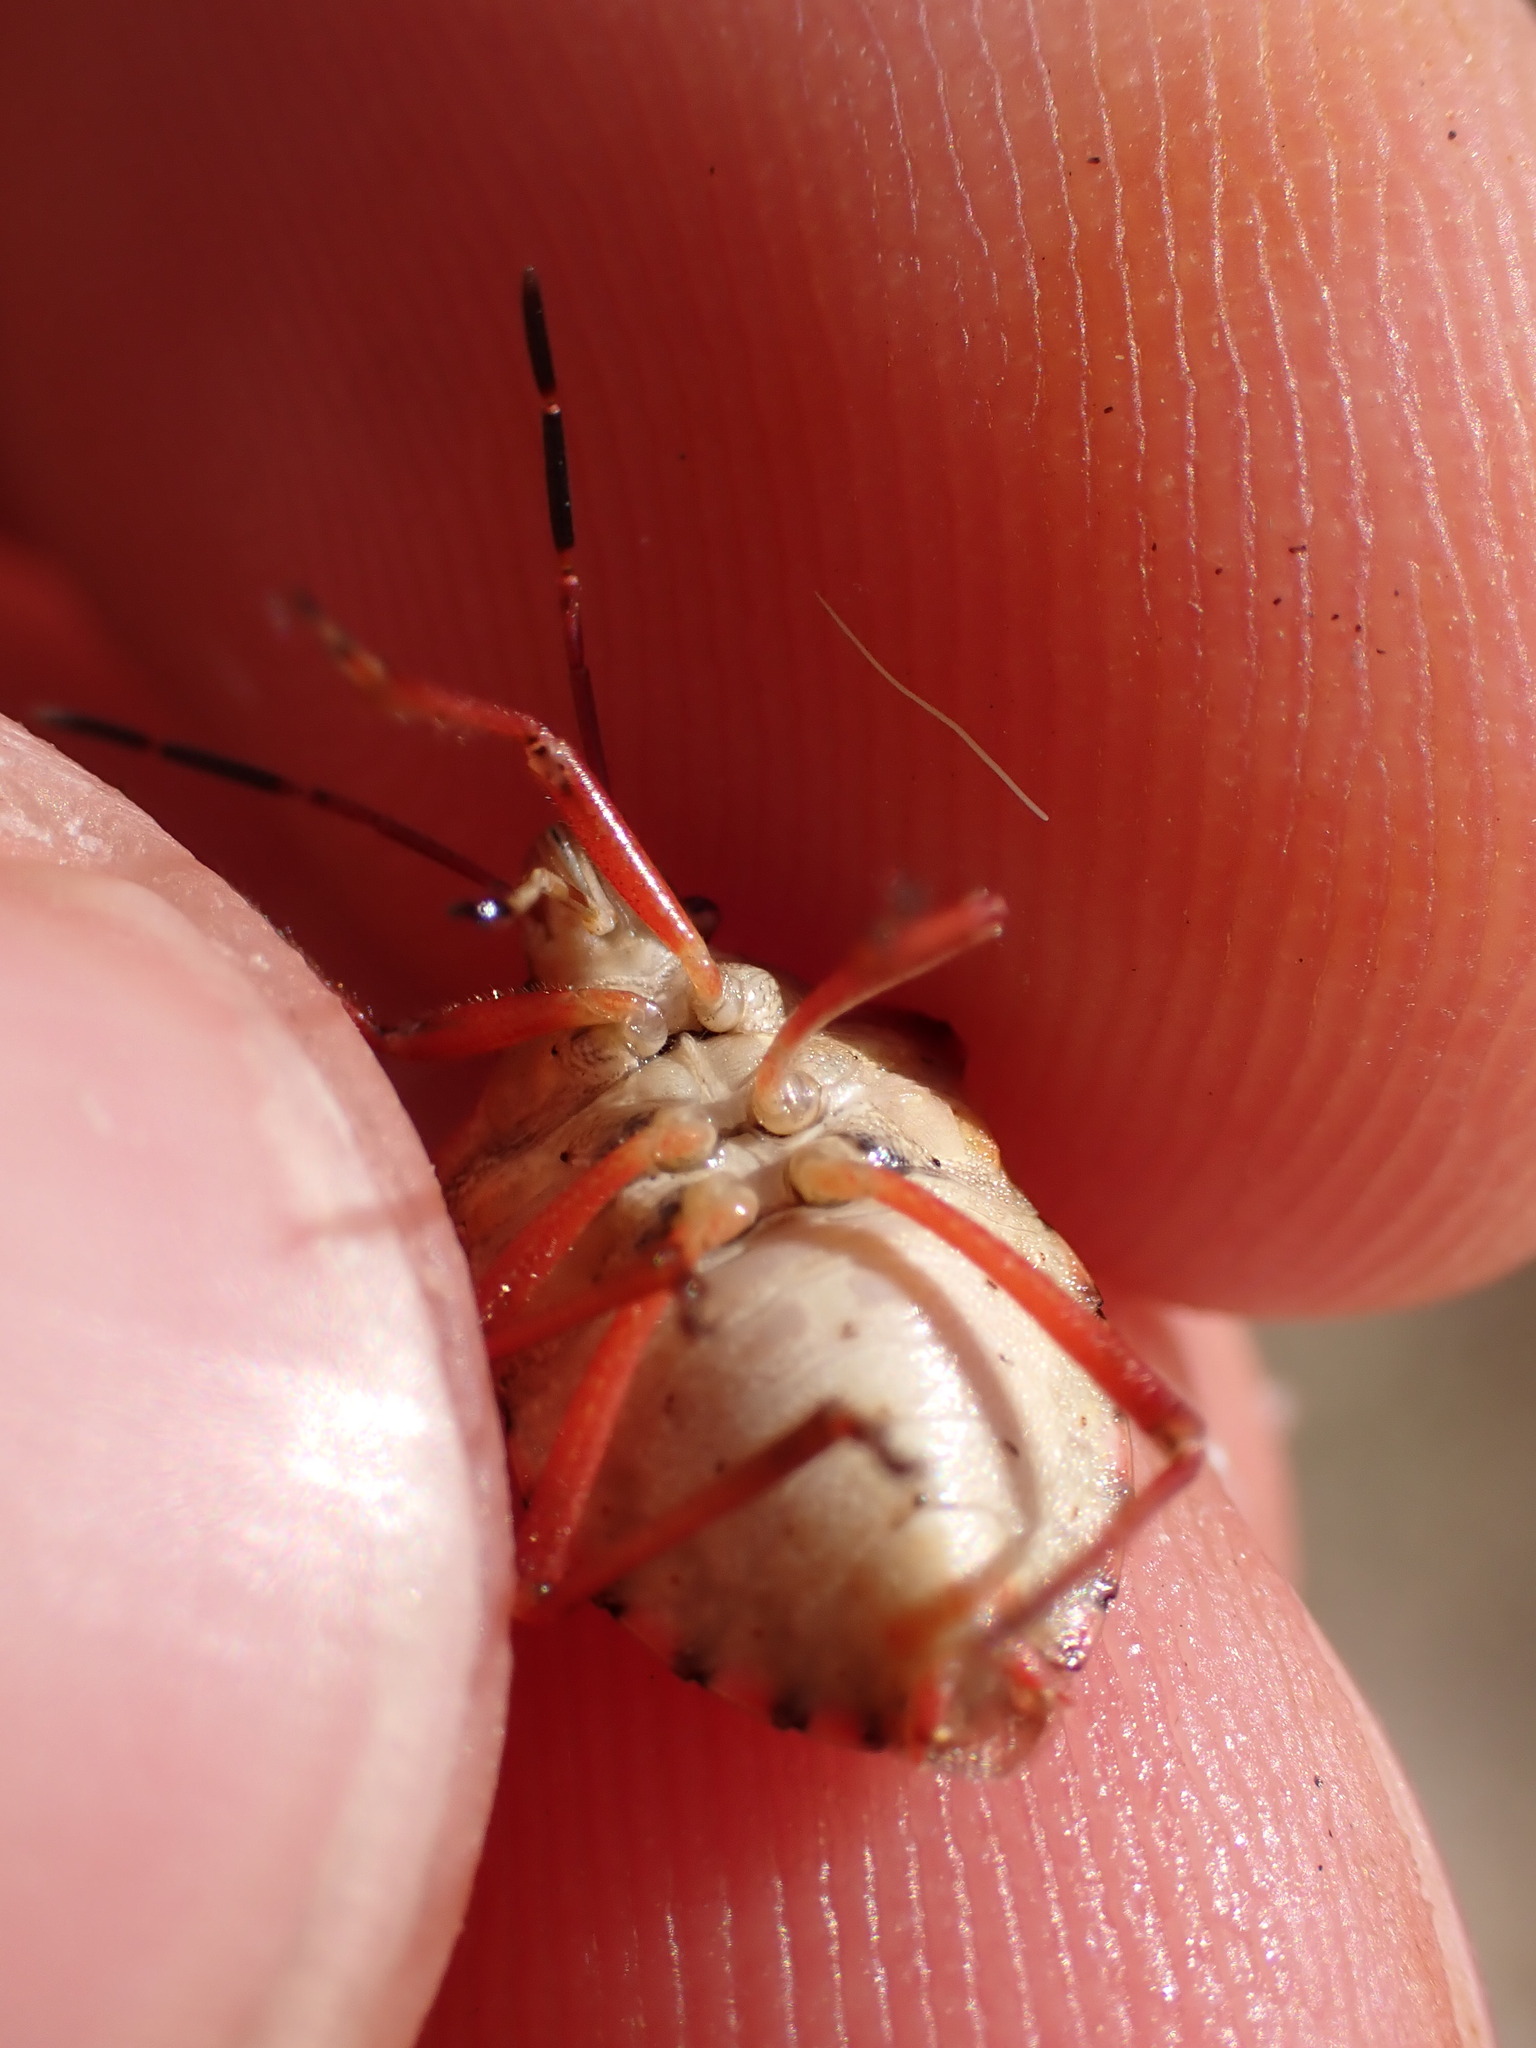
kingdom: Animalia
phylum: Arthropoda
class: Insecta
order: Hemiptera
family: Miridae
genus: Orthops
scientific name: Orthops kalmii
